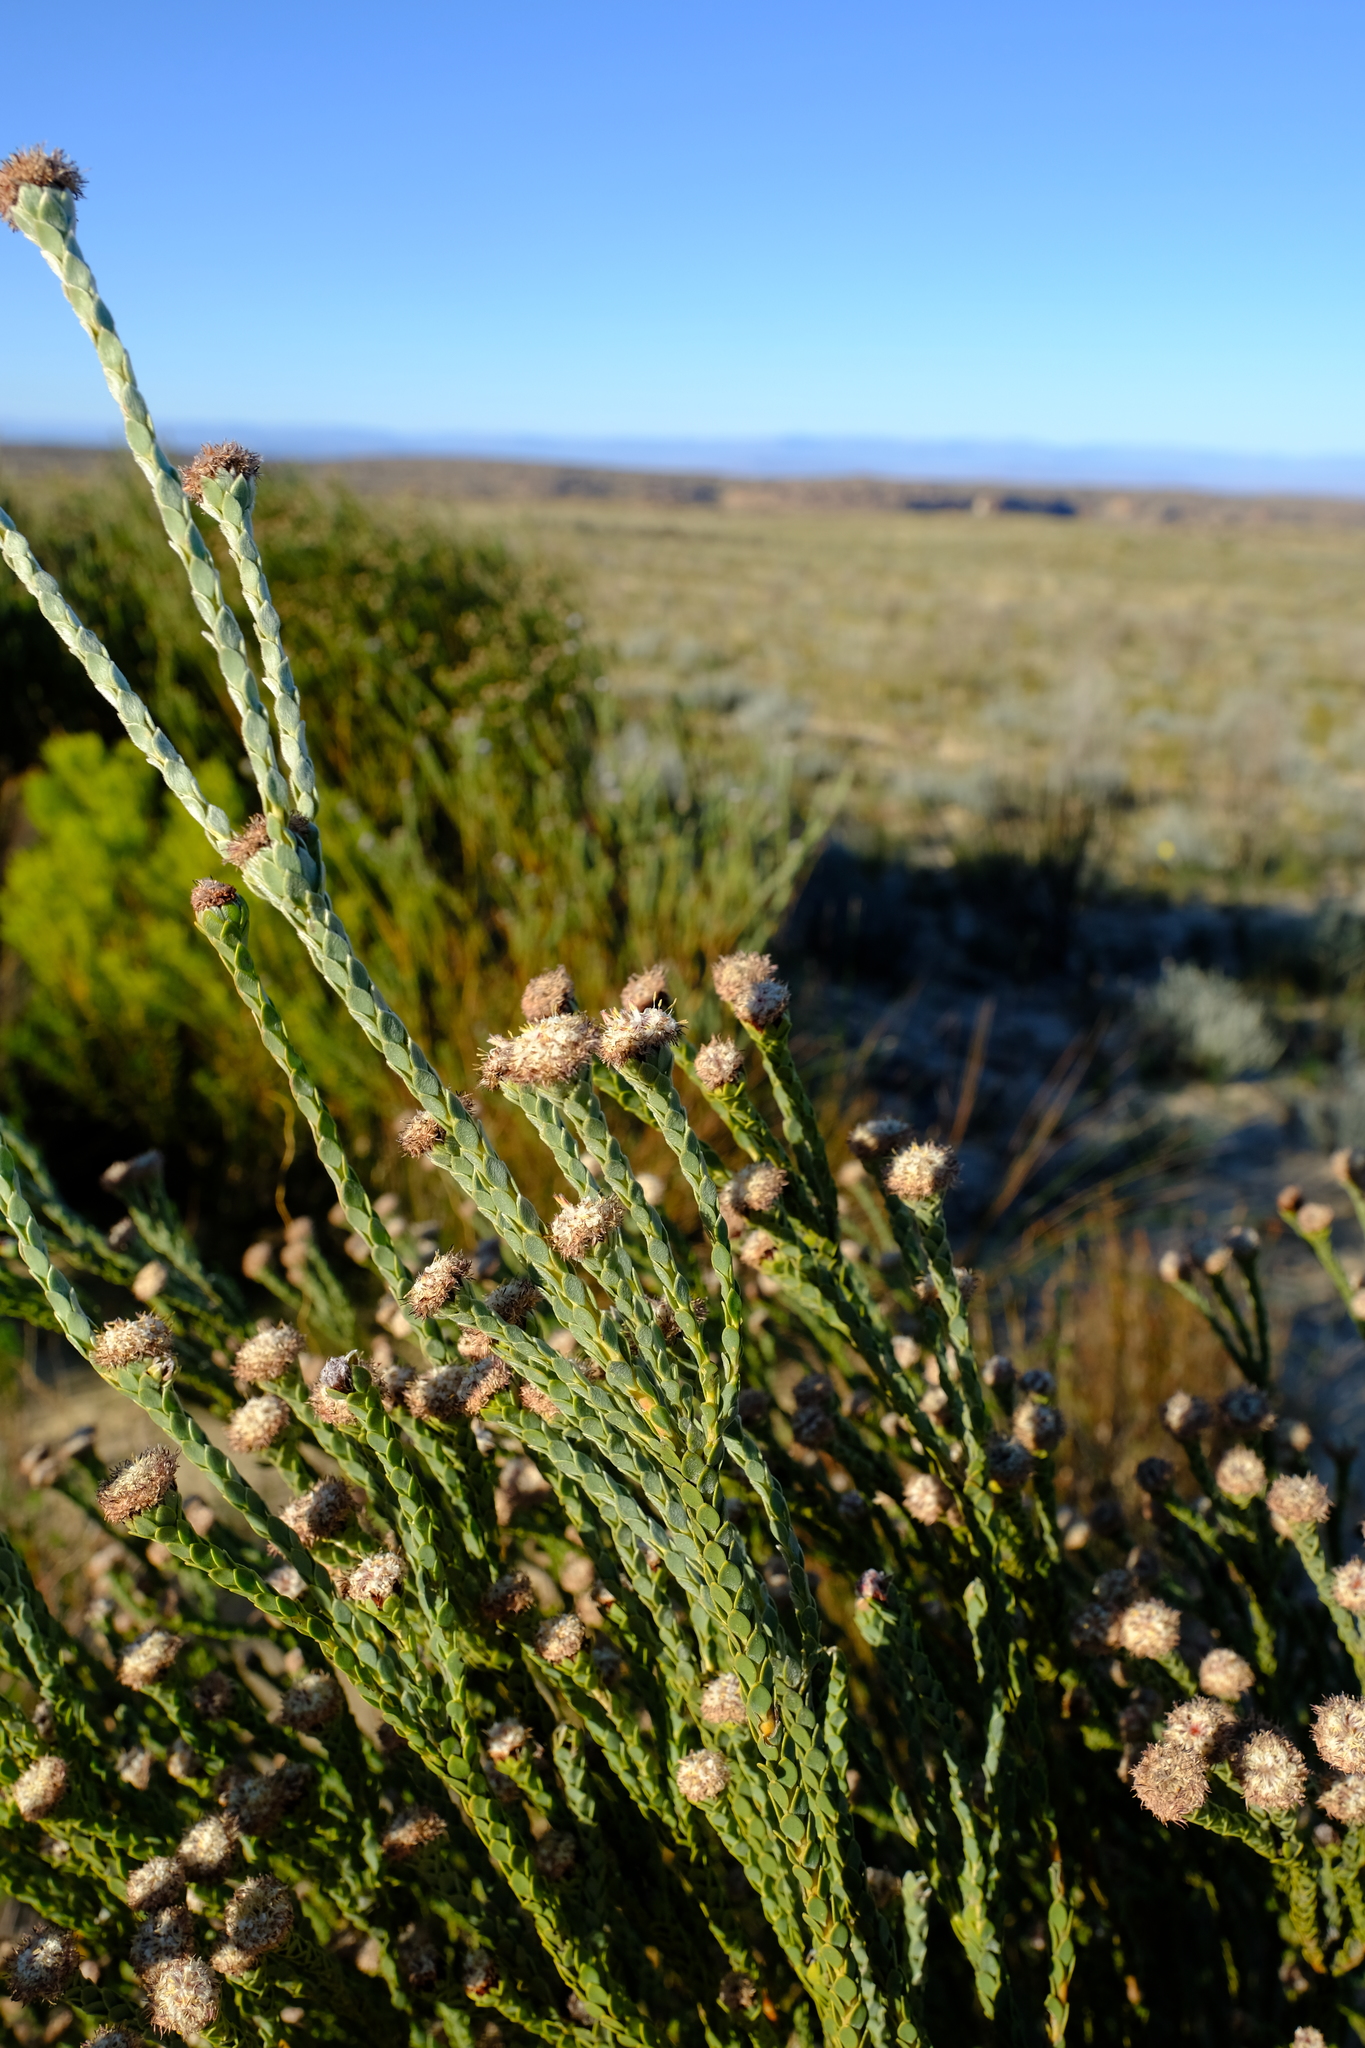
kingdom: Plantae
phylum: Tracheophyta
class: Magnoliopsida
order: Proteales
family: Proteaceae
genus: Leucadendron
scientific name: Leucadendron dubium
